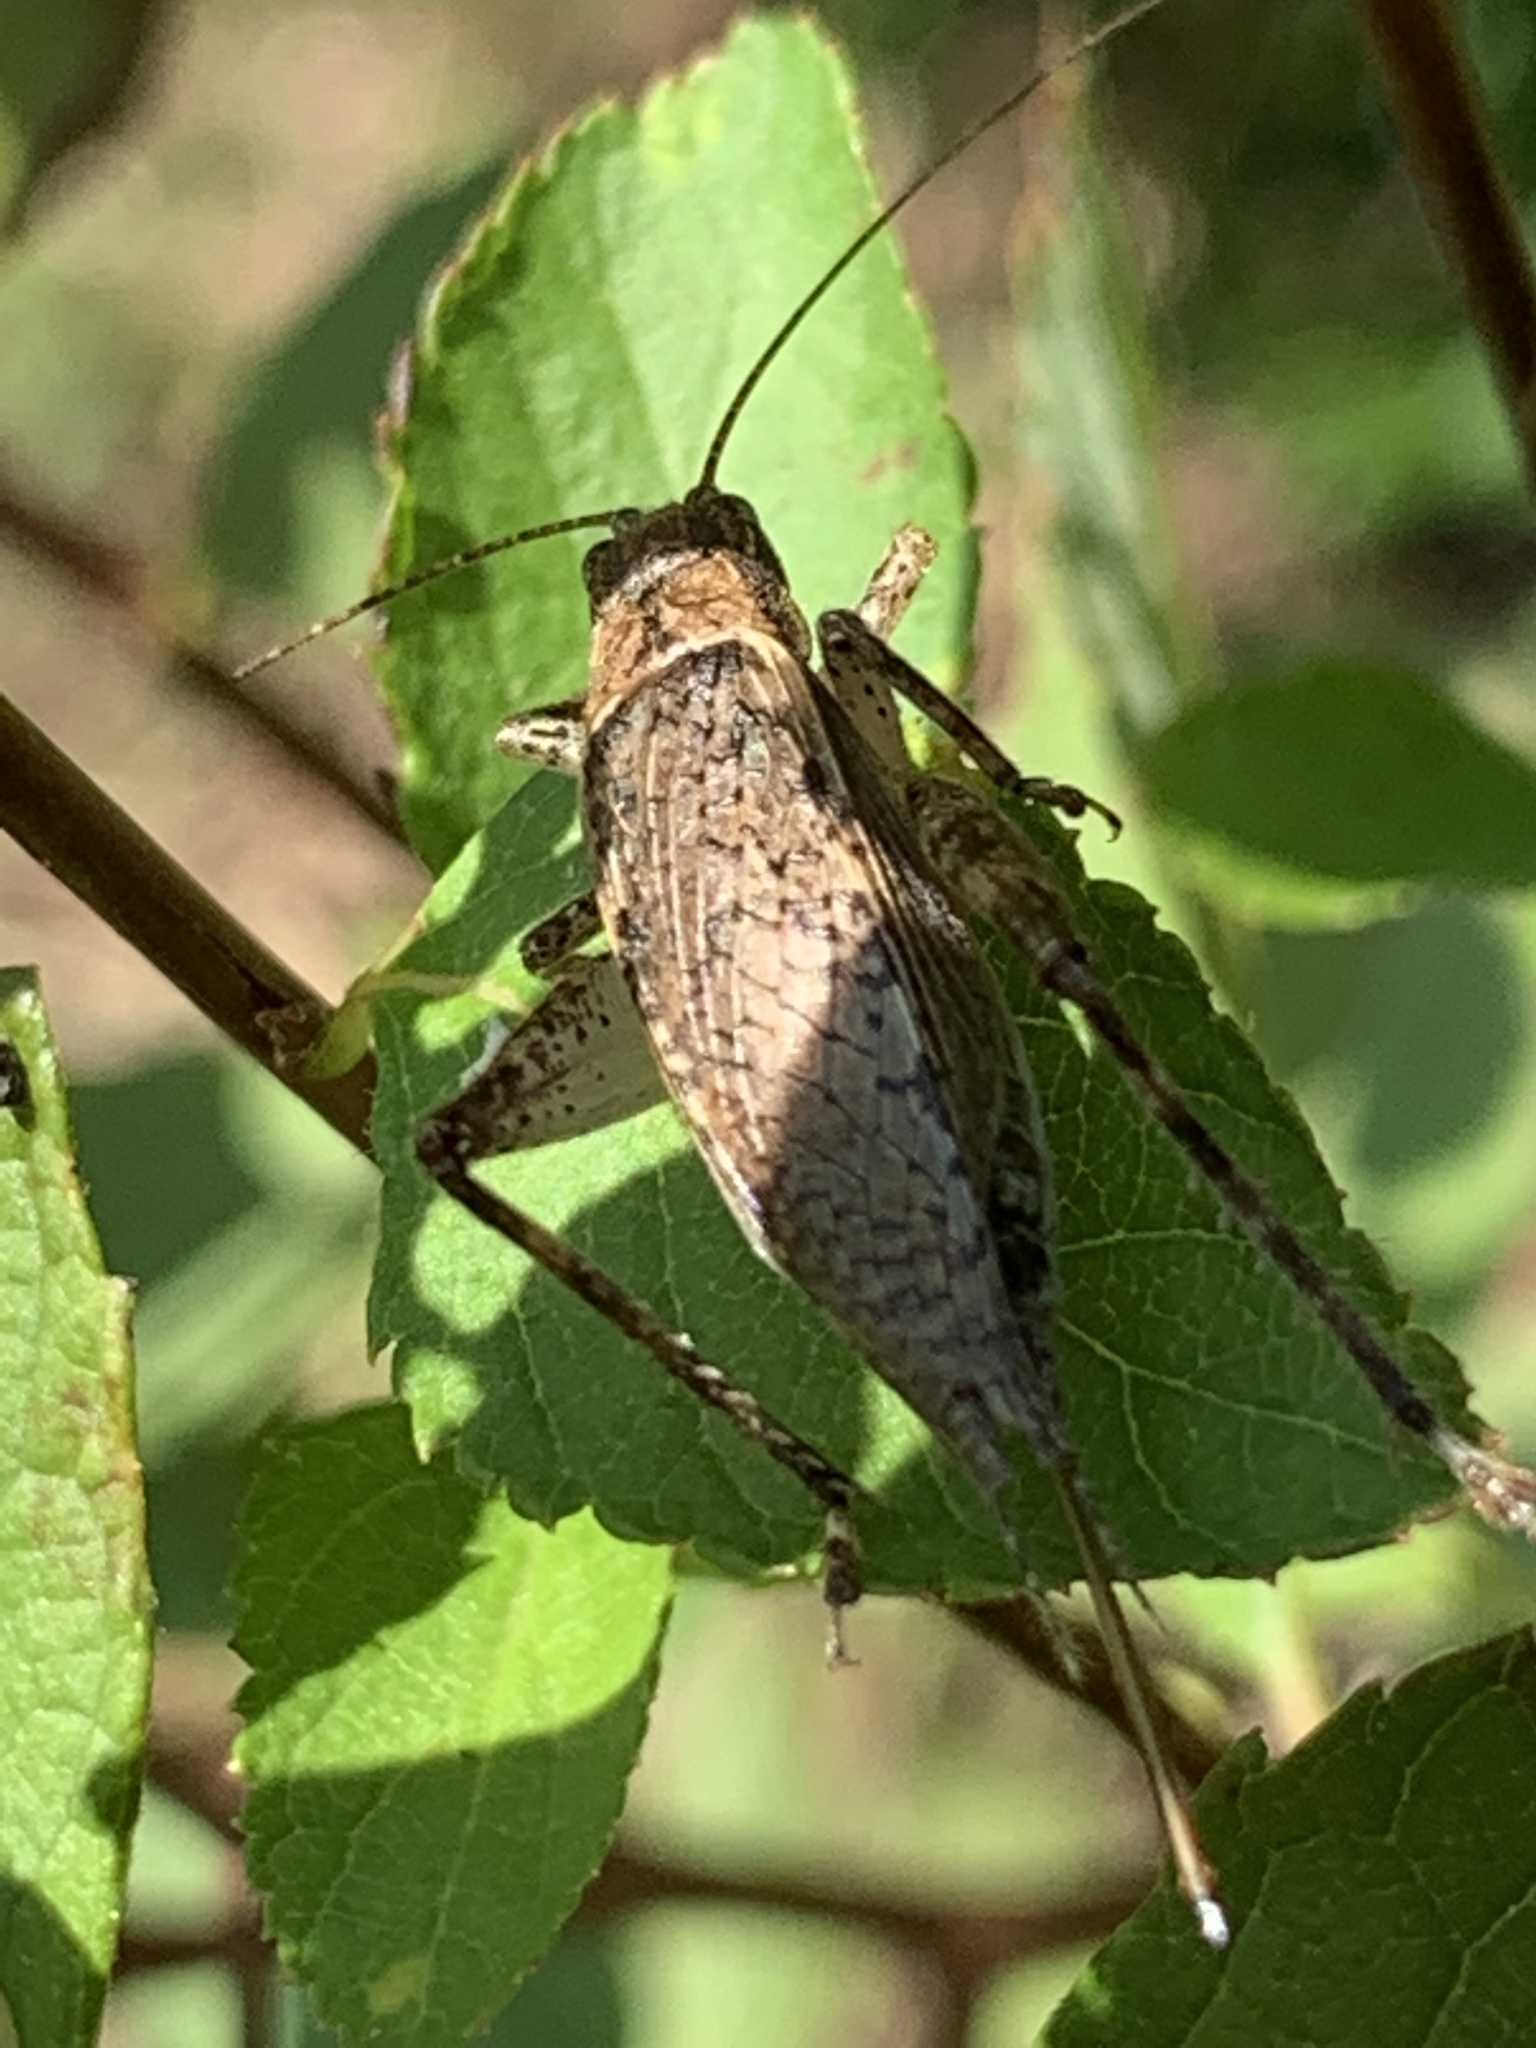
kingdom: Animalia
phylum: Arthropoda
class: Insecta
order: Orthoptera
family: Gryllidae
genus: Hapithus
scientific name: Hapithus saltator
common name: Jumping bush cricket
